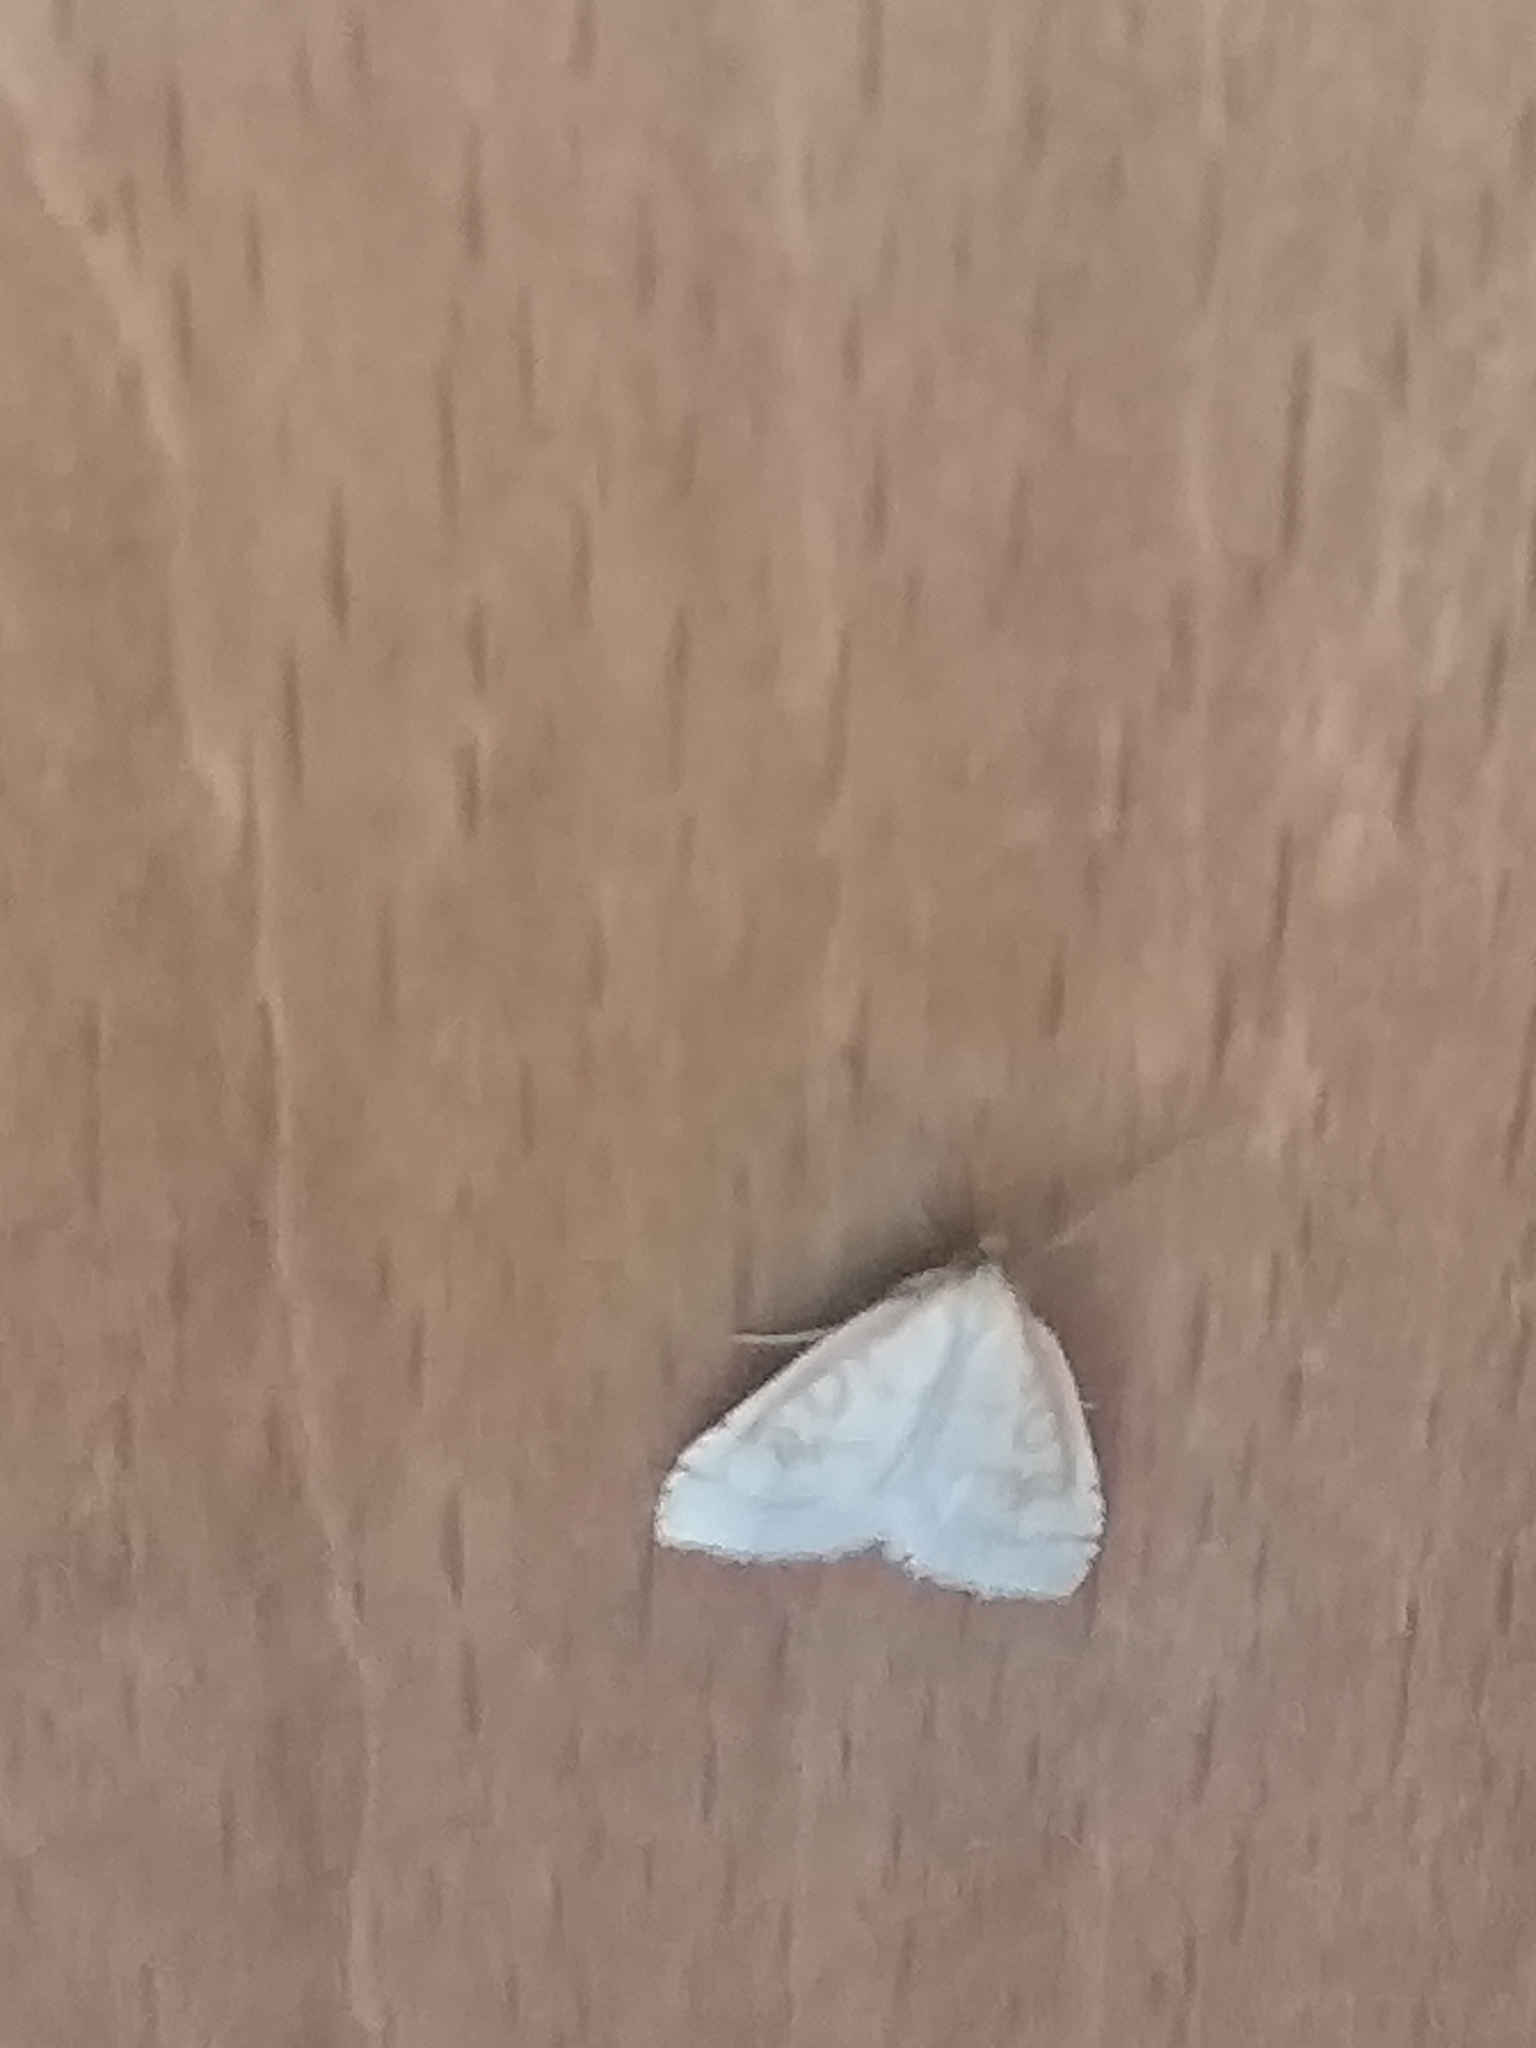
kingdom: Animalia
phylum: Arthropoda
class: Insecta
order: Lepidoptera
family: Crambidae
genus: Udea
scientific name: Udea lutealis
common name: Pale straw pearl
